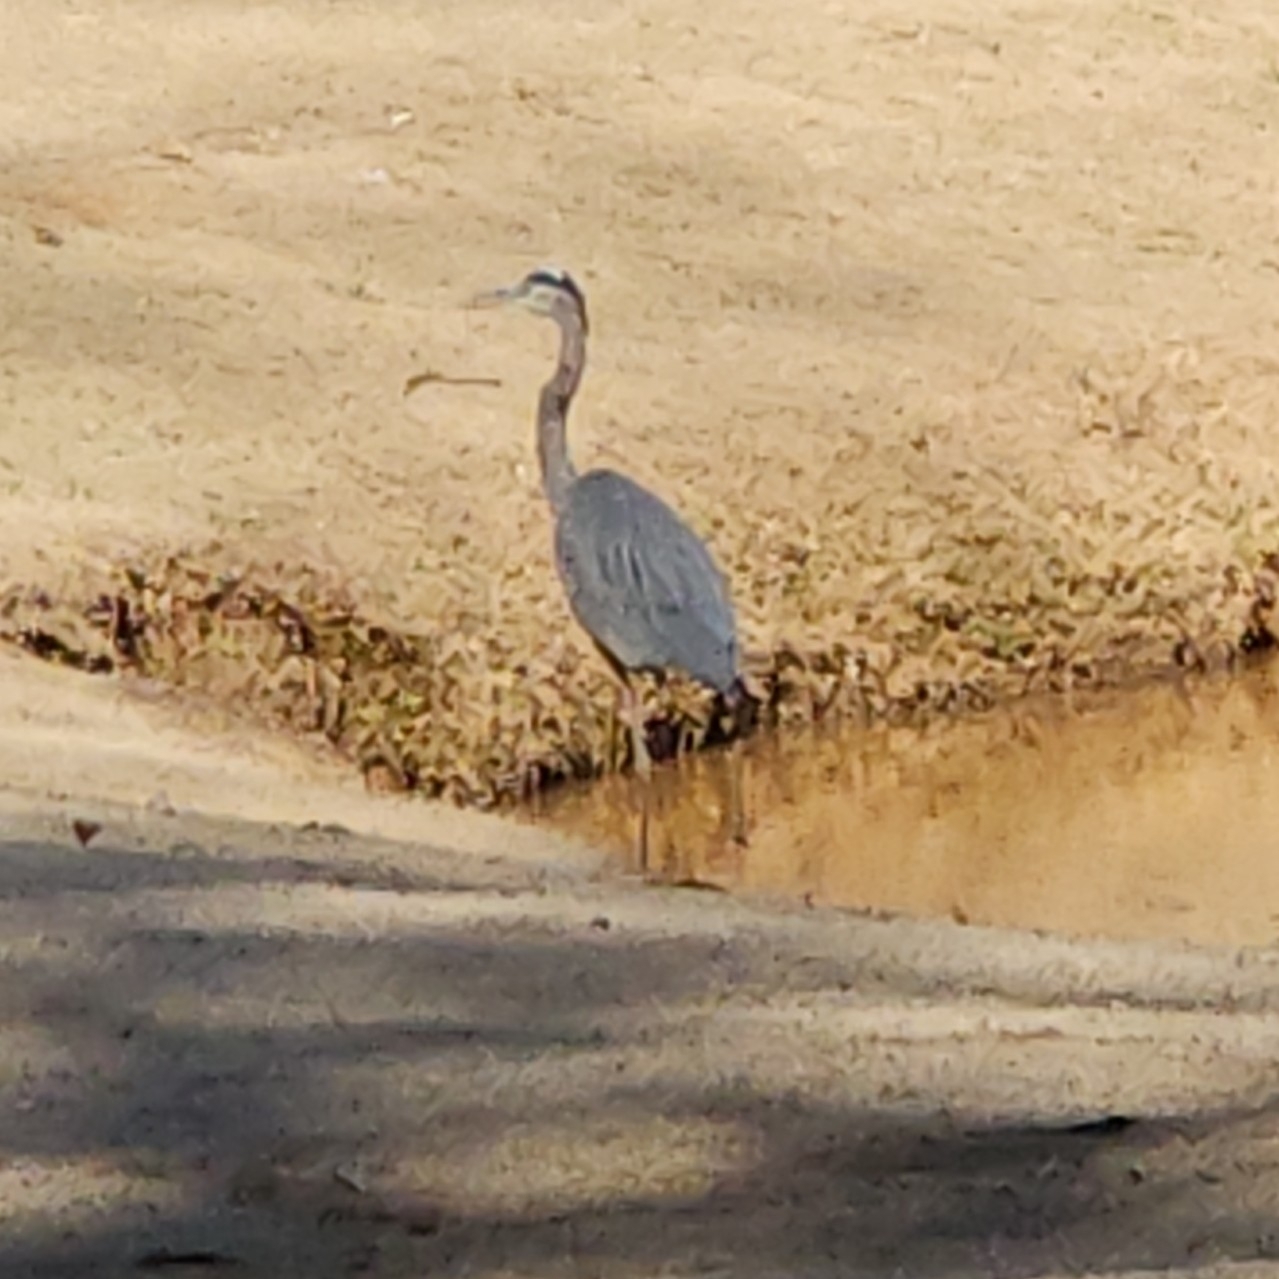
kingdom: Animalia
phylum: Chordata
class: Aves
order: Pelecaniformes
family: Ardeidae
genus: Ardea
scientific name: Ardea herodias
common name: Great blue heron
